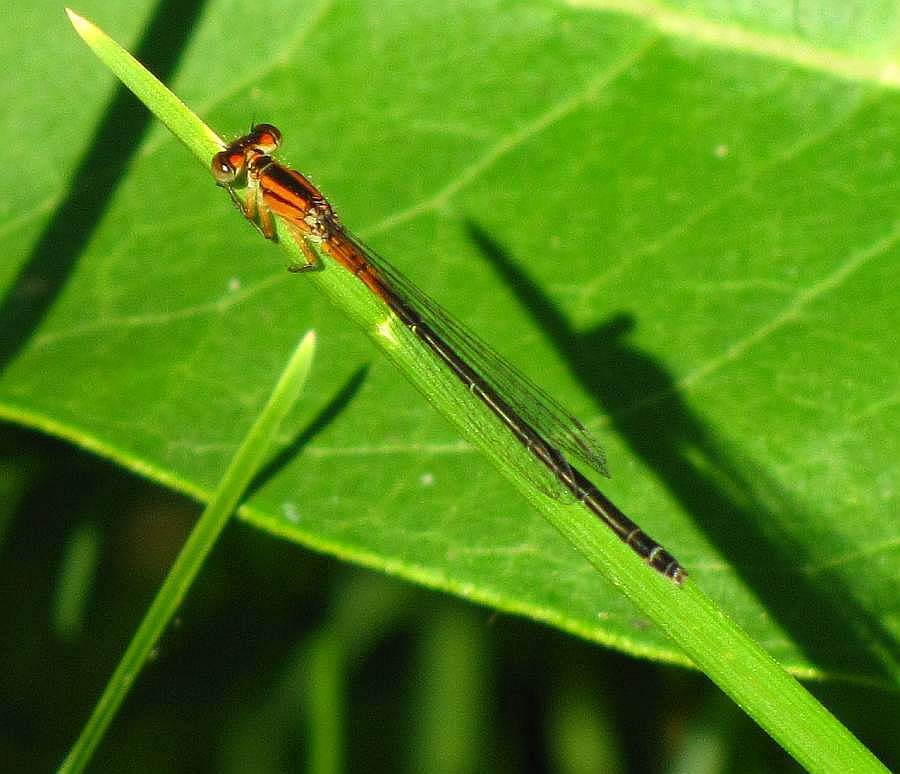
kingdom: Animalia
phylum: Arthropoda
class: Insecta
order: Odonata
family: Coenagrionidae
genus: Ischnura
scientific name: Ischnura verticalis
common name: Eastern forktail
